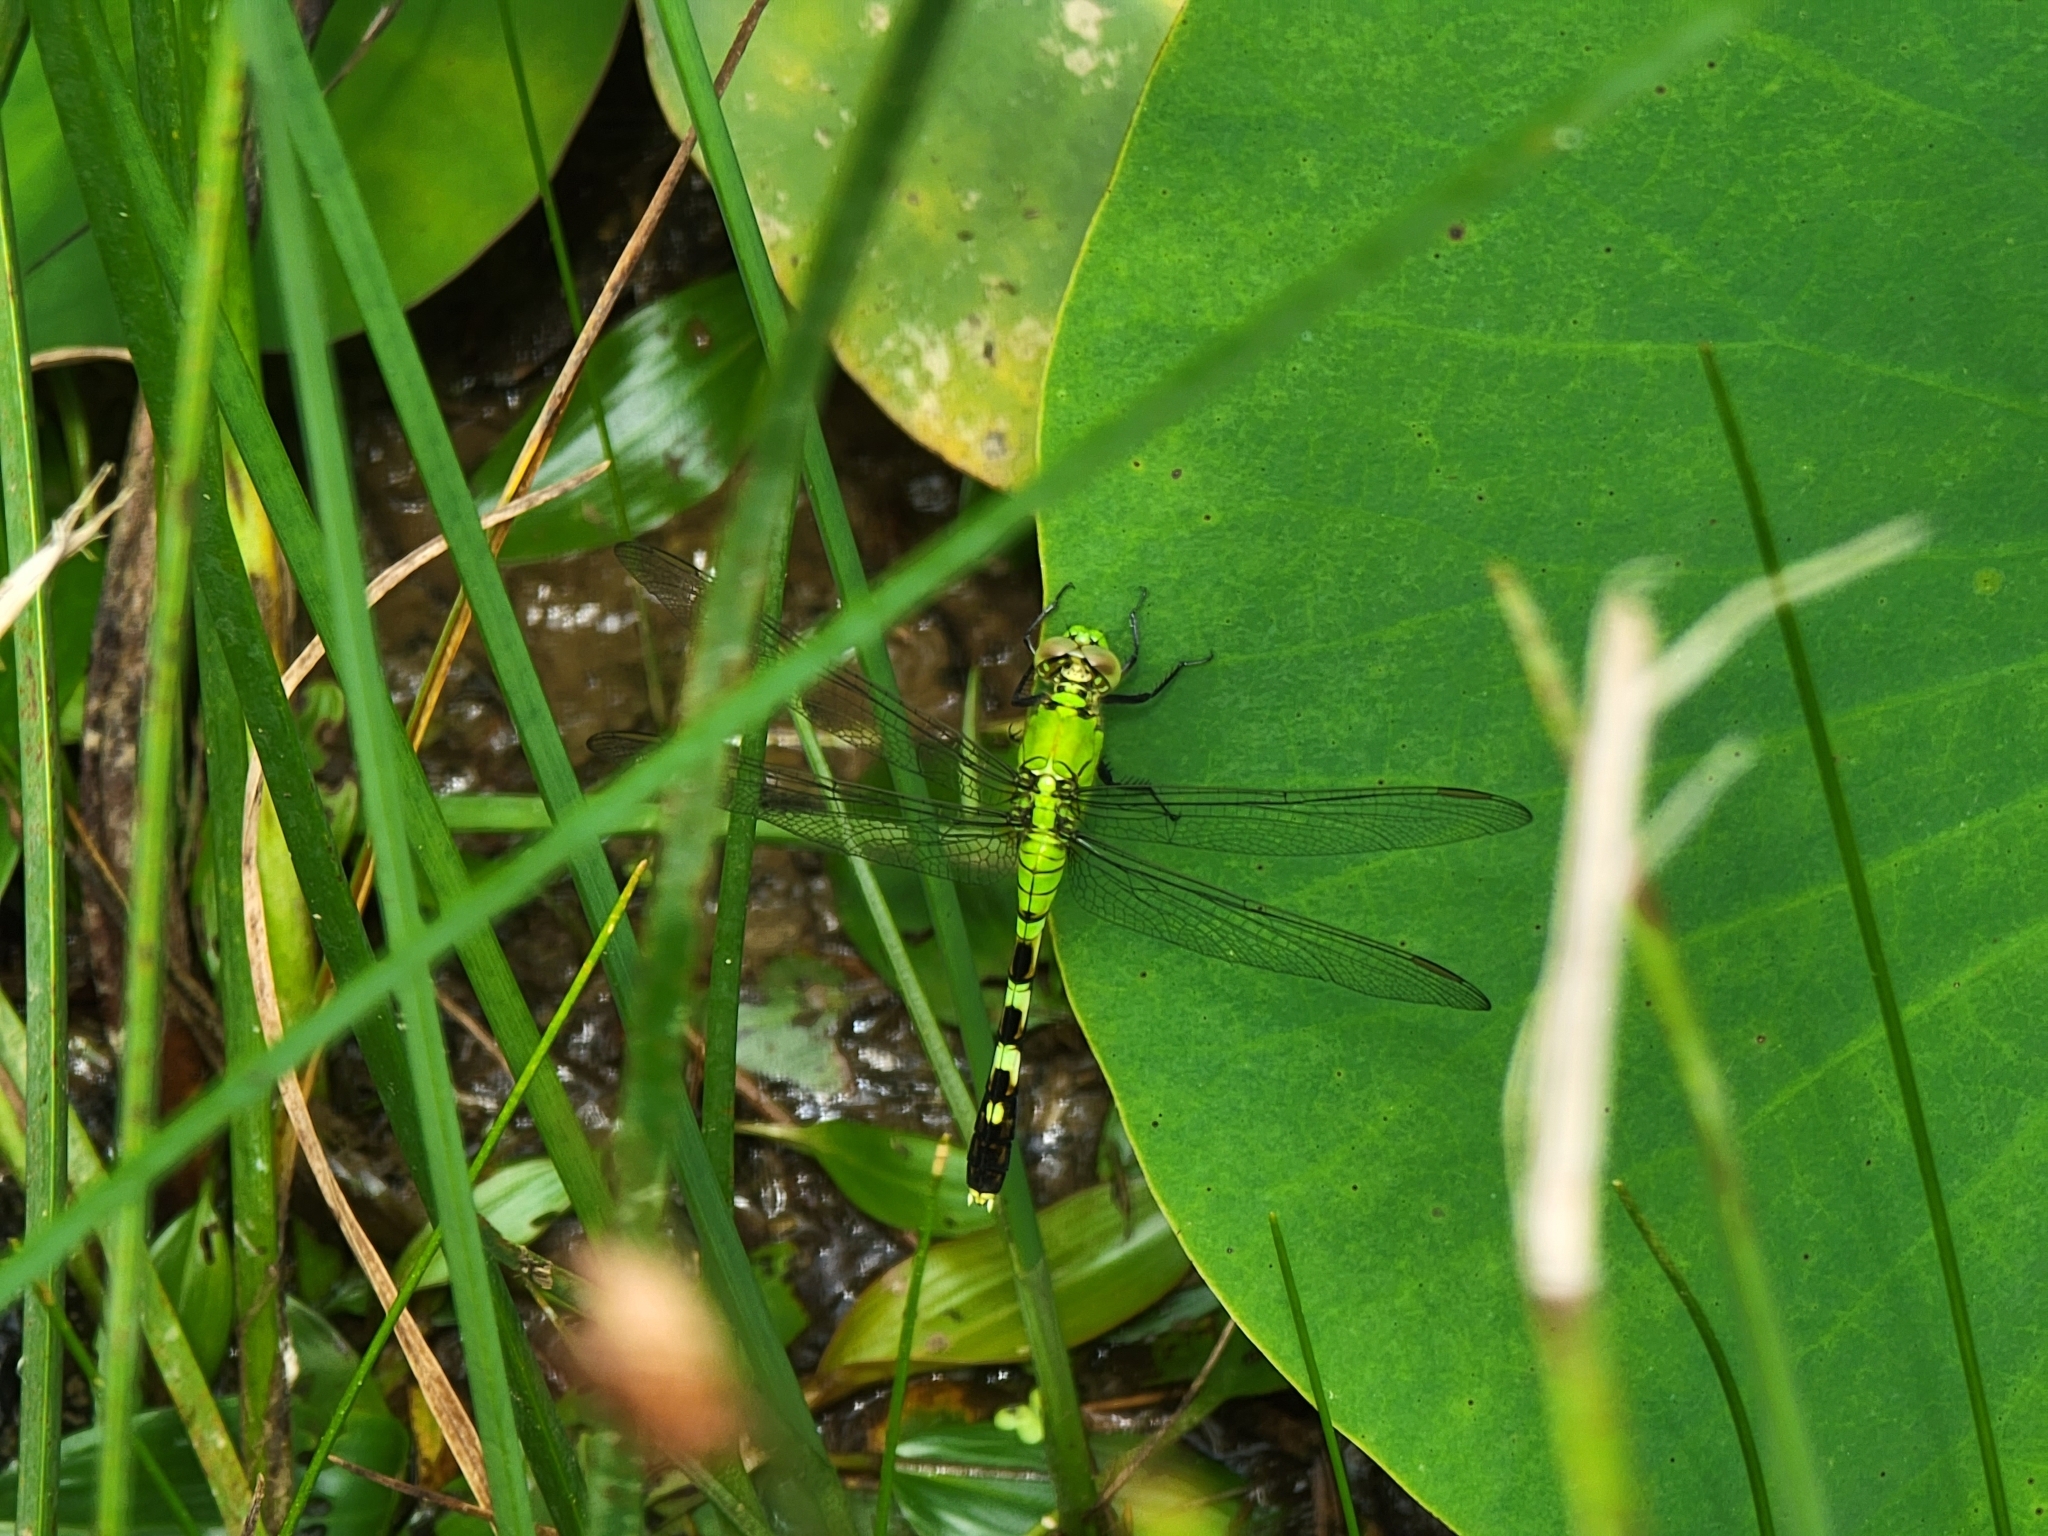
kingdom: Animalia
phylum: Arthropoda
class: Insecta
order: Odonata
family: Libellulidae
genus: Erythemis
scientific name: Erythemis simplicicollis
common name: Eastern pondhawk
